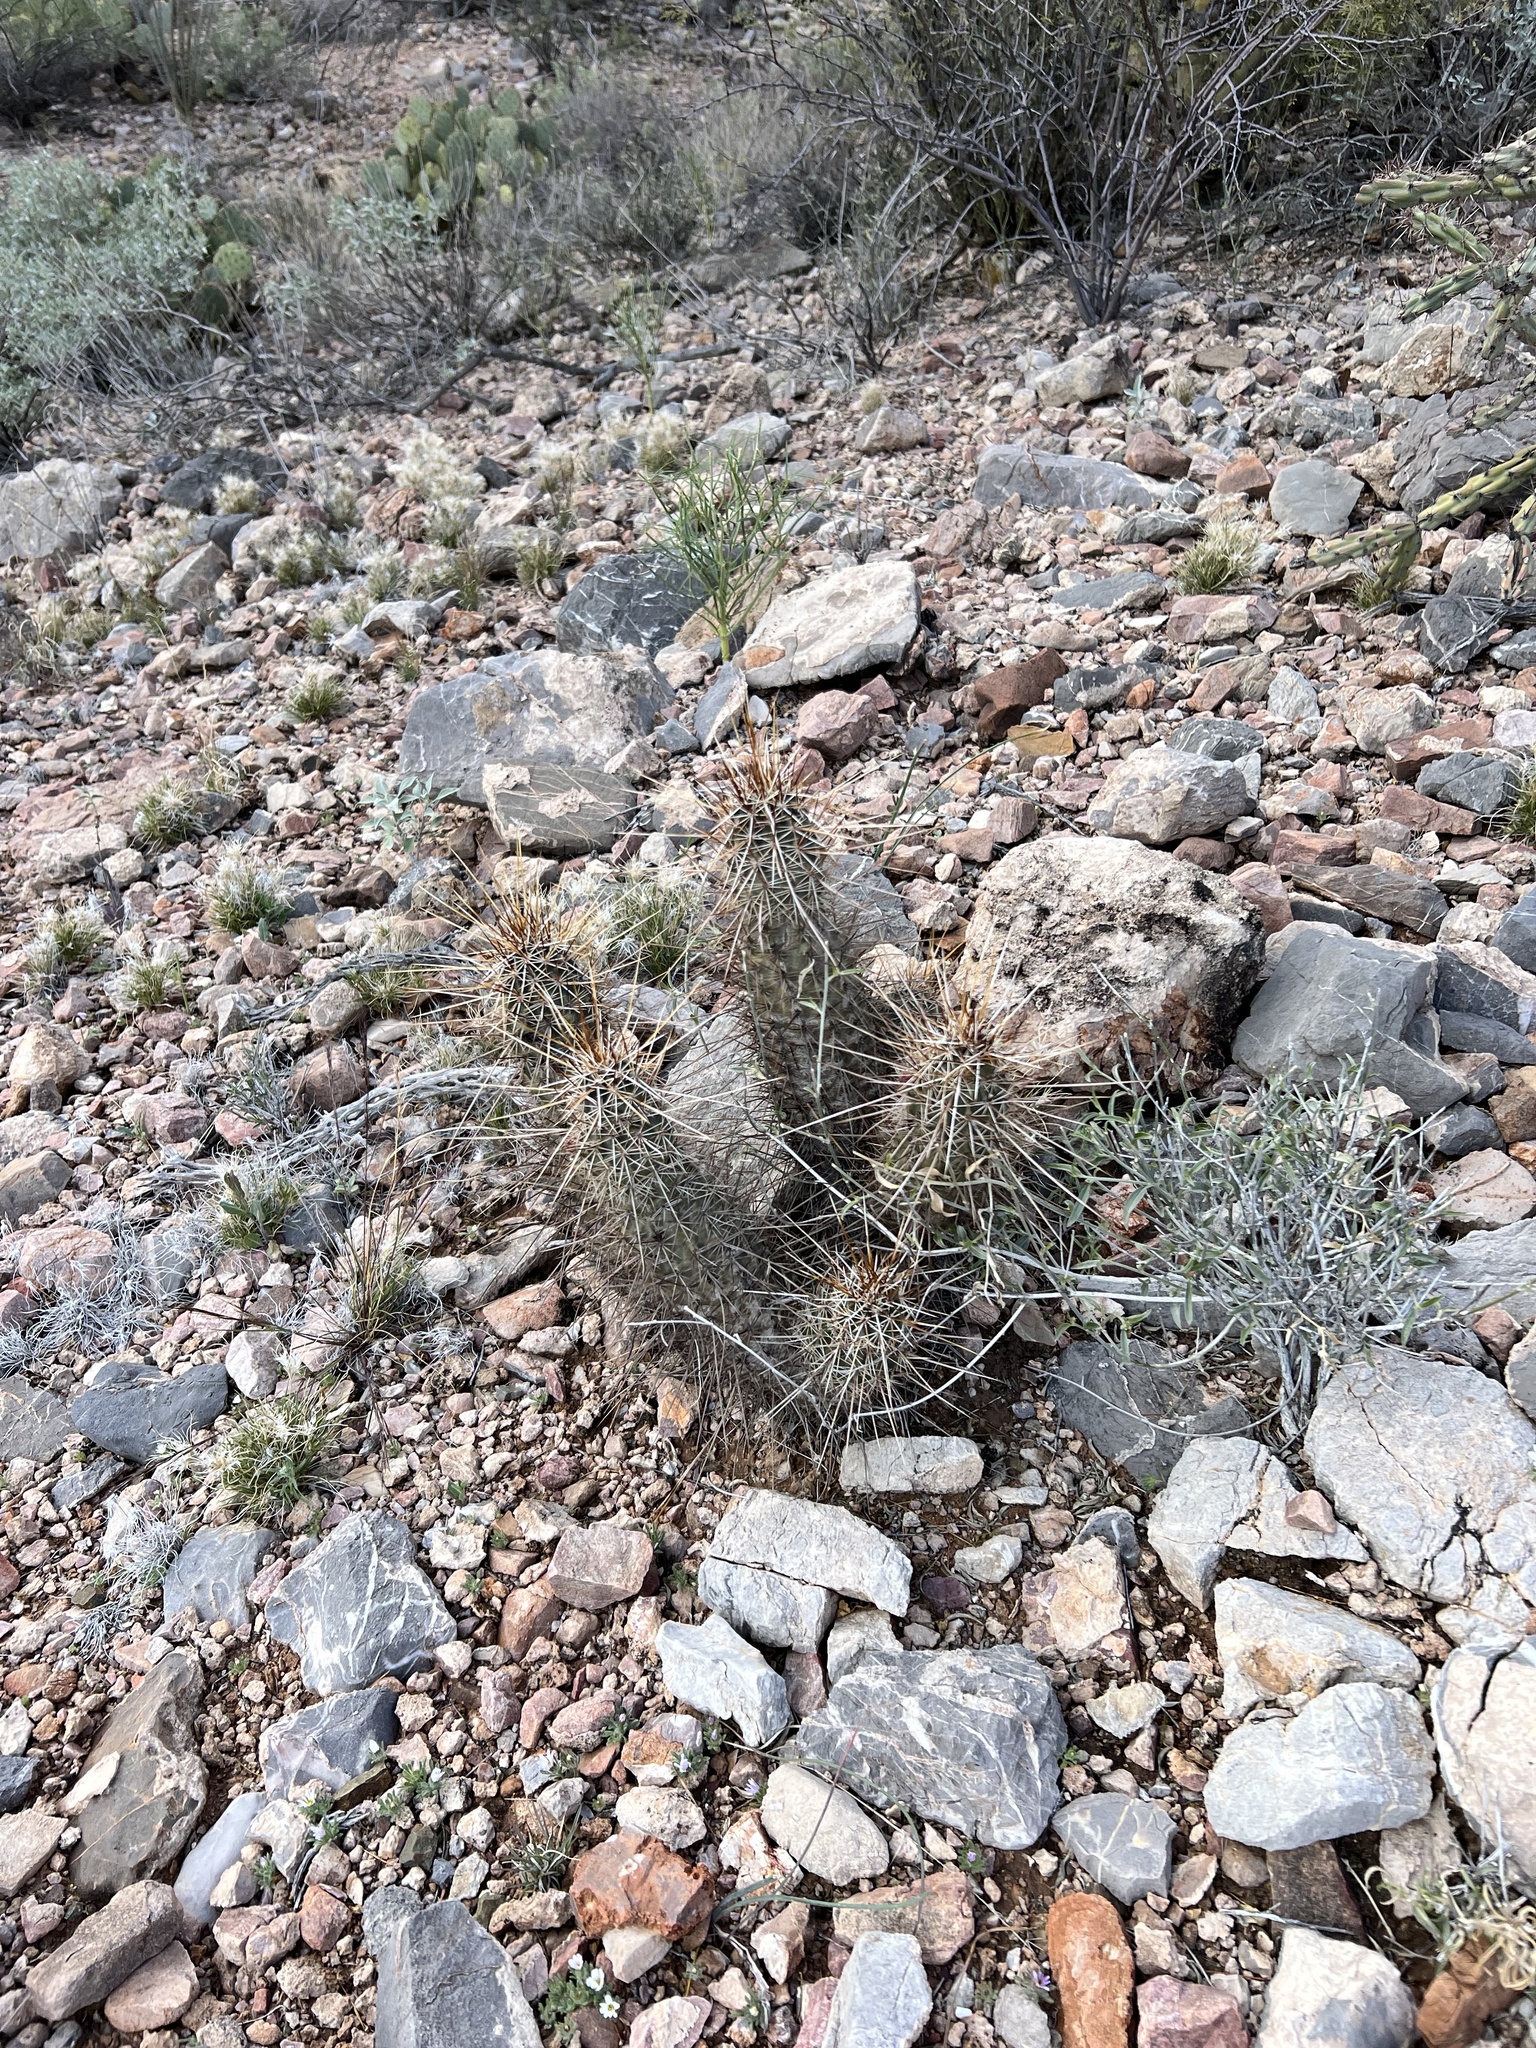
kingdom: Plantae
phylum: Tracheophyta
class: Magnoliopsida
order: Caryophyllales
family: Cactaceae
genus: Echinocereus
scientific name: Echinocereus fasciculatus
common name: Bundle hedgehog
